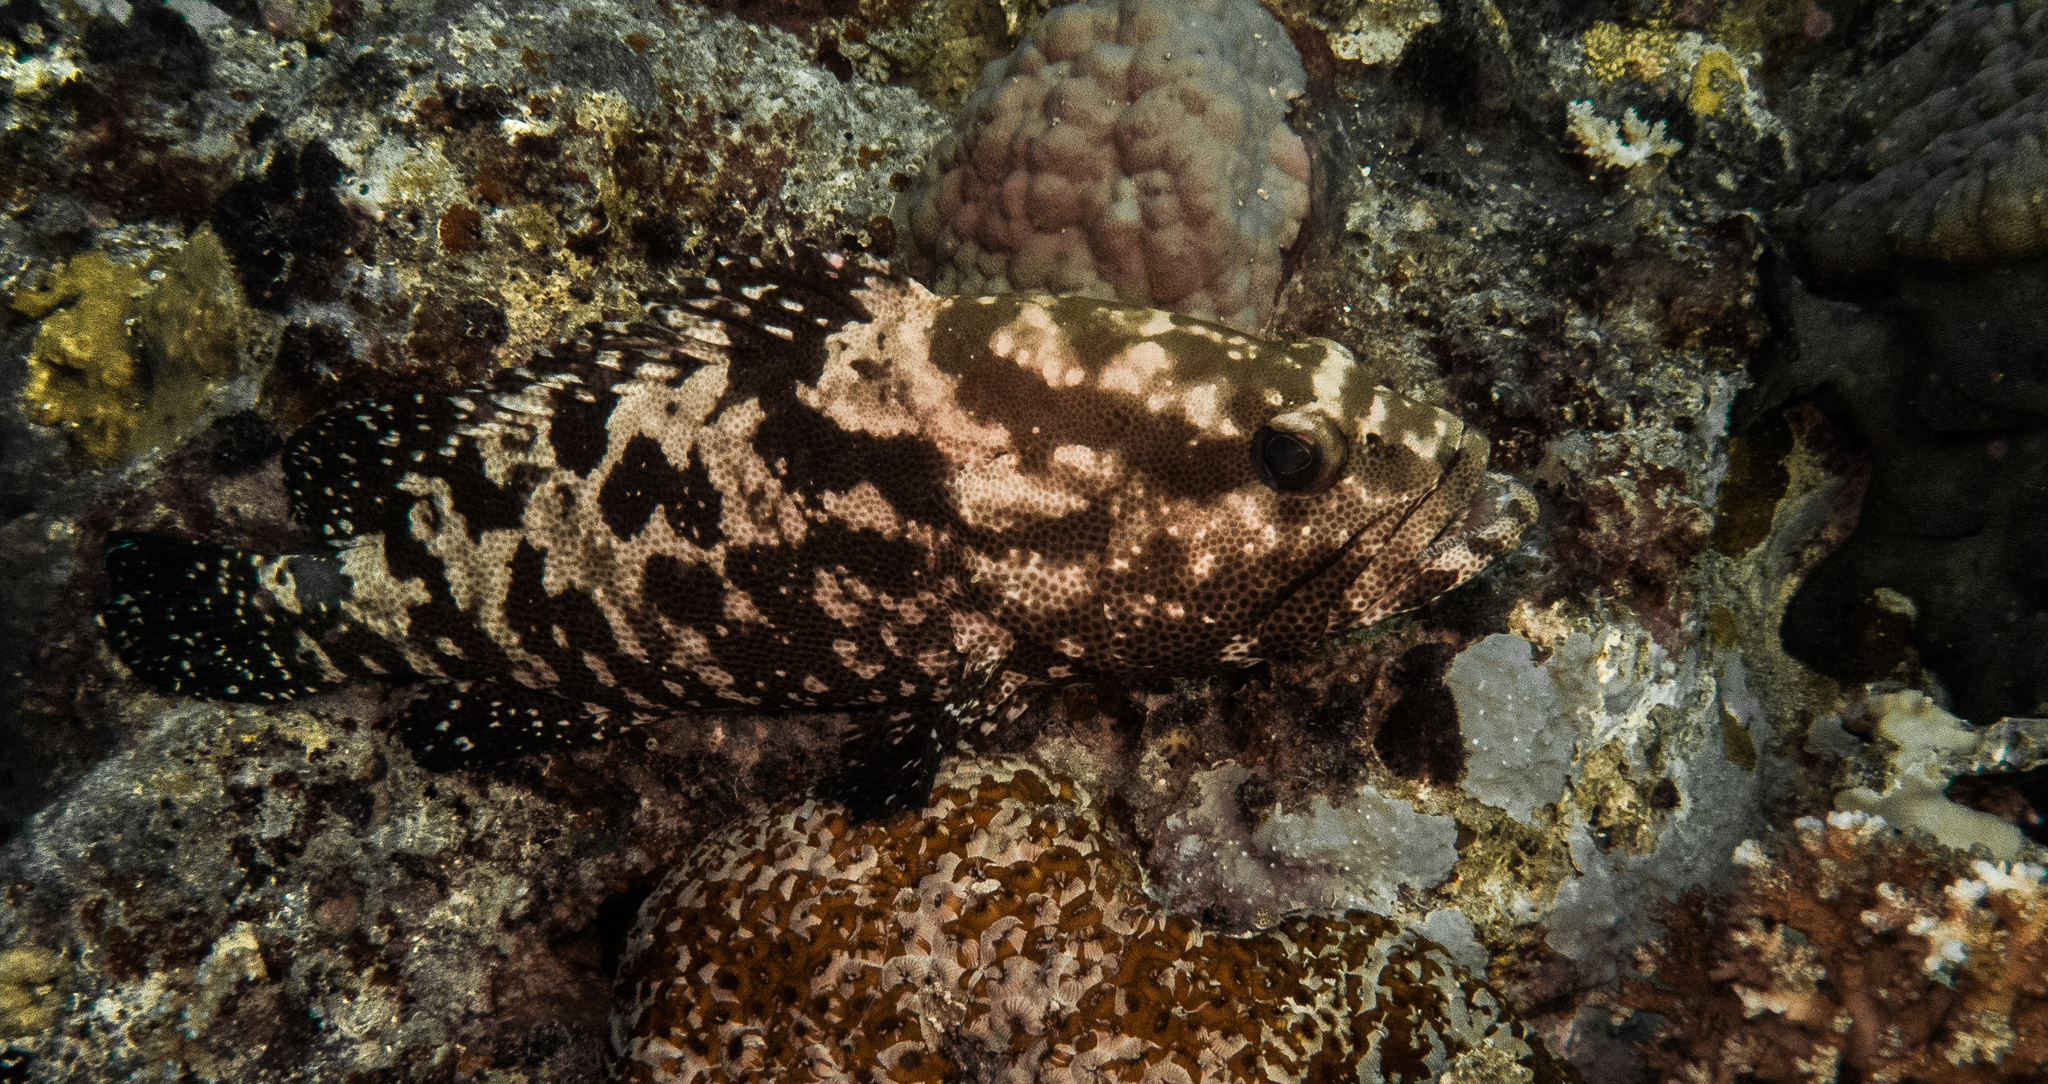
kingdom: Animalia
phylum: Chordata
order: Perciformes
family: Serranidae
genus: Epinephelus
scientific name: Epinephelus polyphekadion
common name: Camouflage grouper
